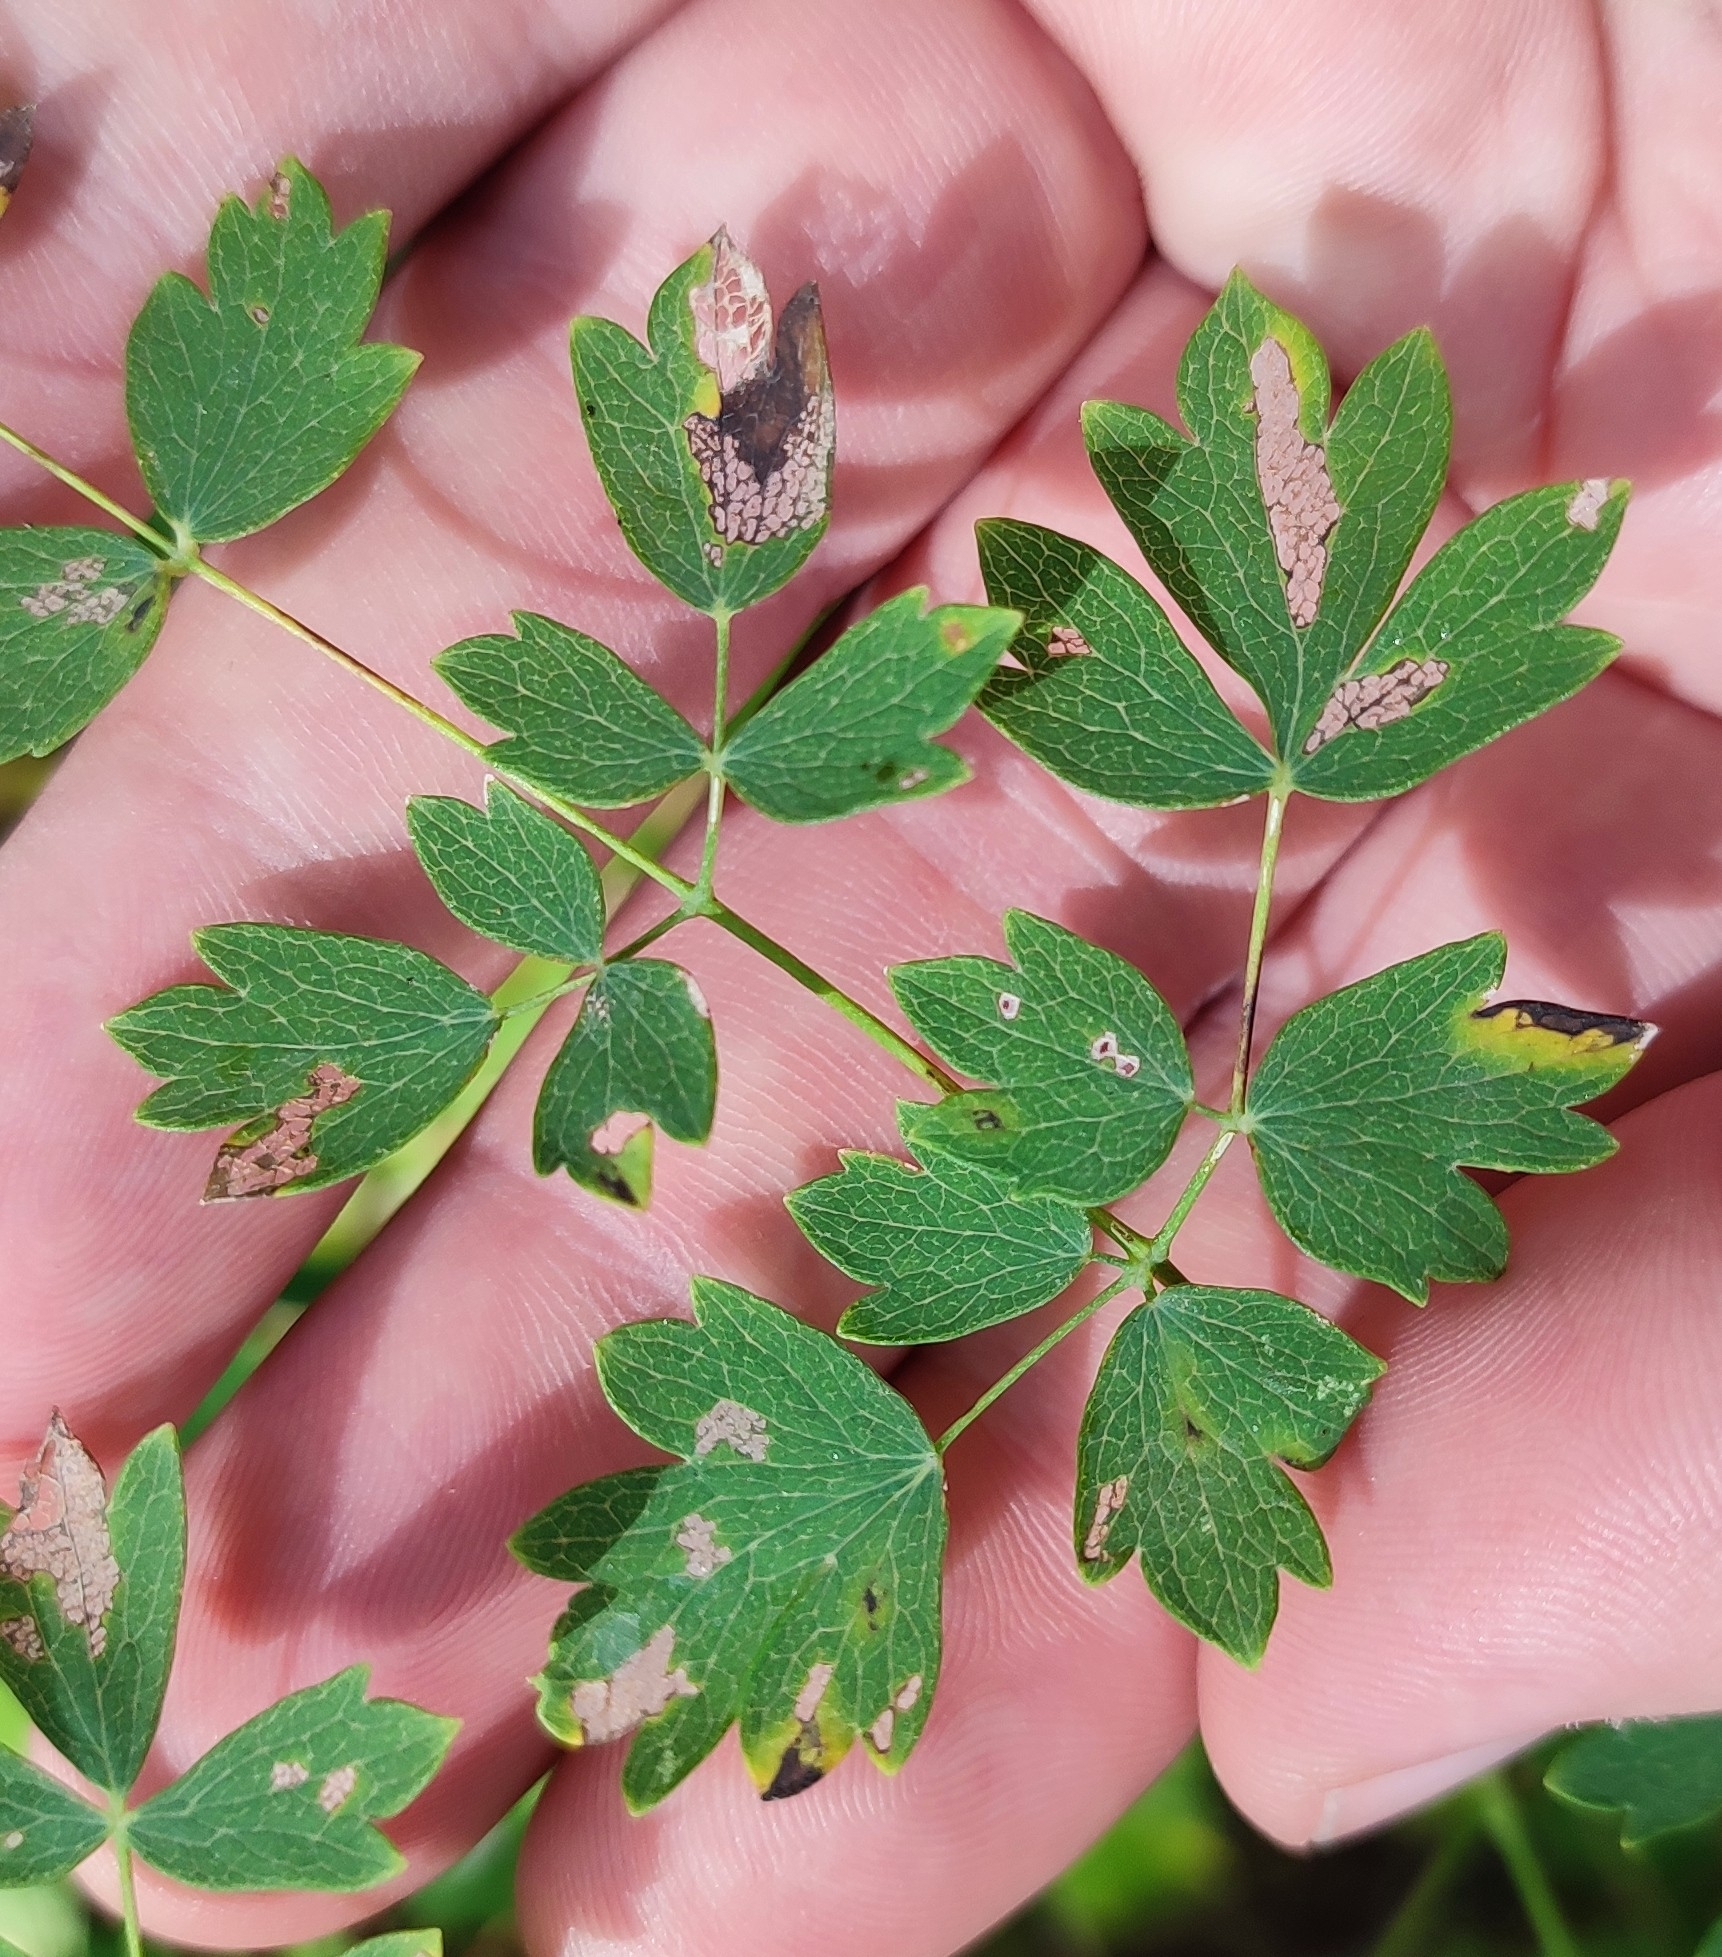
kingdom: Plantae
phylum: Tracheophyta
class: Magnoliopsida
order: Ranunculales
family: Ranunculaceae
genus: Thalictrum
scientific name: Thalictrum minus
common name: Lesser meadow-rue
